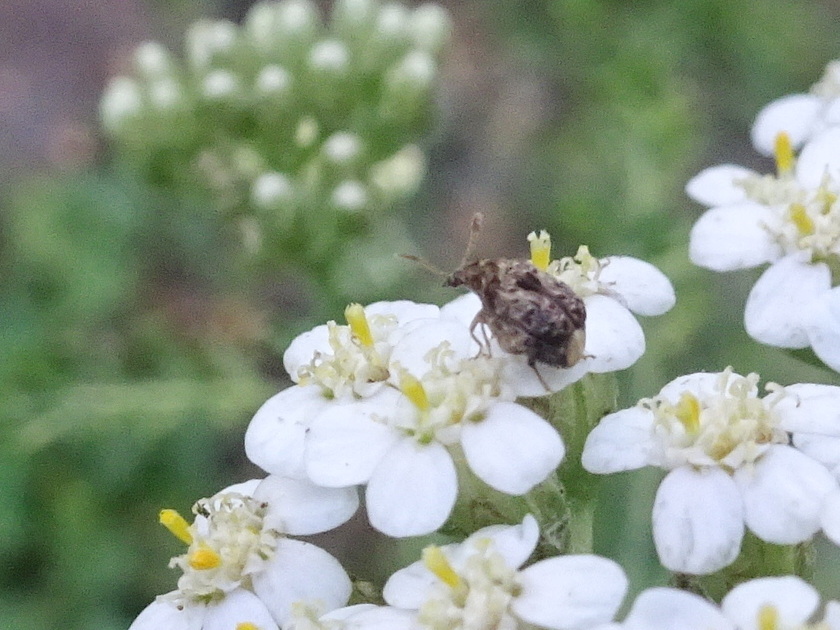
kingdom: Animalia
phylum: Arthropoda
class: Insecta
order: Coleoptera
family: Chrysomelidae
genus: Gibbobruchus
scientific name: Gibbobruchus mimus
